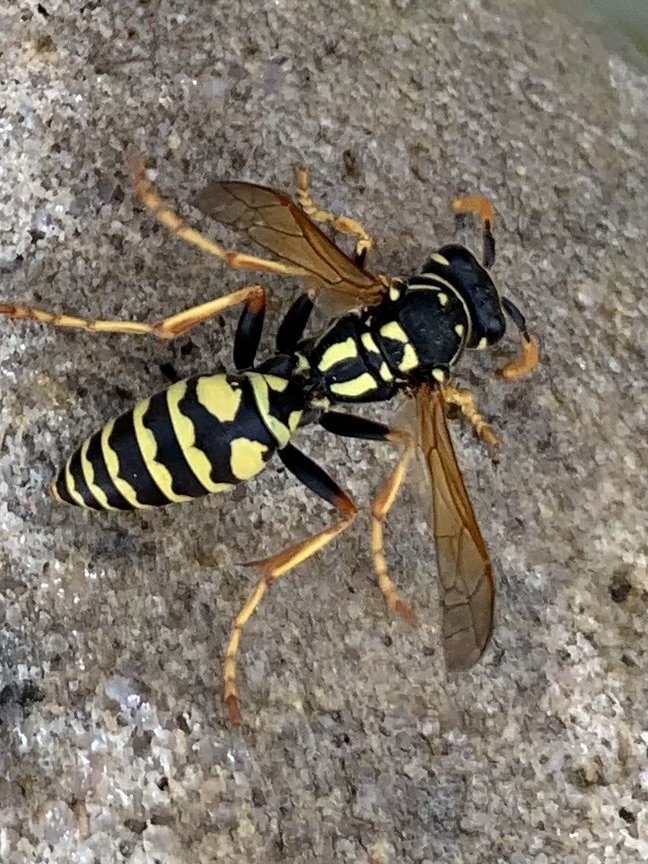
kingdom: Animalia
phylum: Arthropoda
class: Insecta
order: Hymenoptera
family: Eumenidae
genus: Polistes
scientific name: Polistes dominula
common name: Paper wasp
